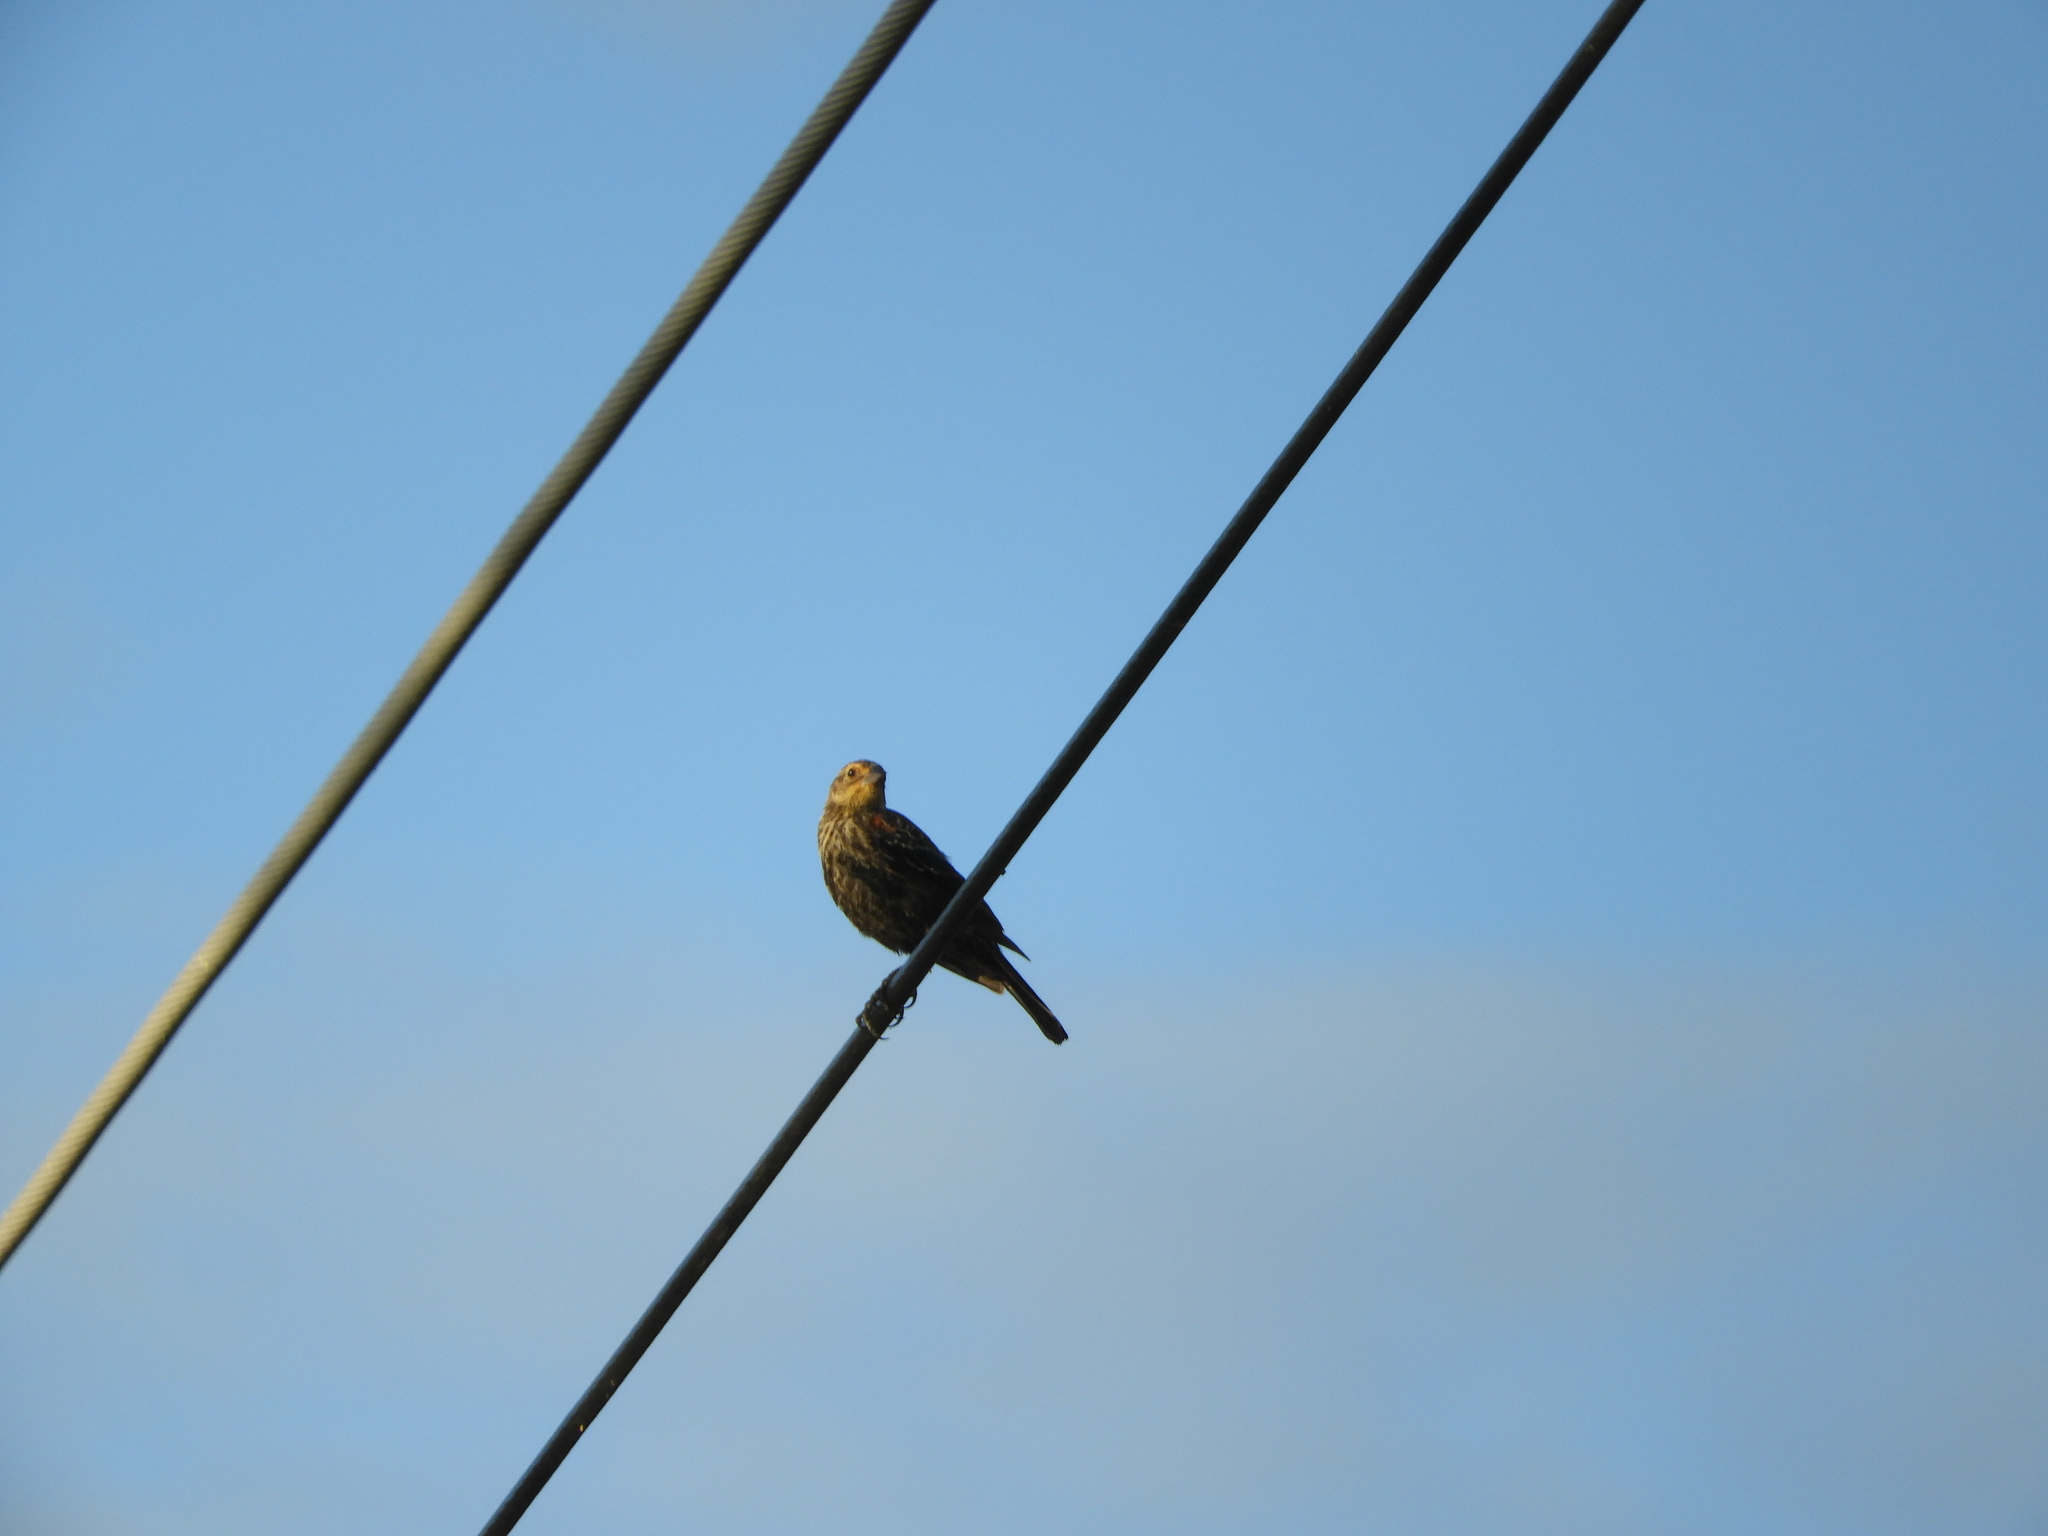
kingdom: Animalia
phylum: Chordata
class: Aves
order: Passeriformes
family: Fringillidae
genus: Haemorhous
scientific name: Haemorhous mexicanus
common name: House finch
